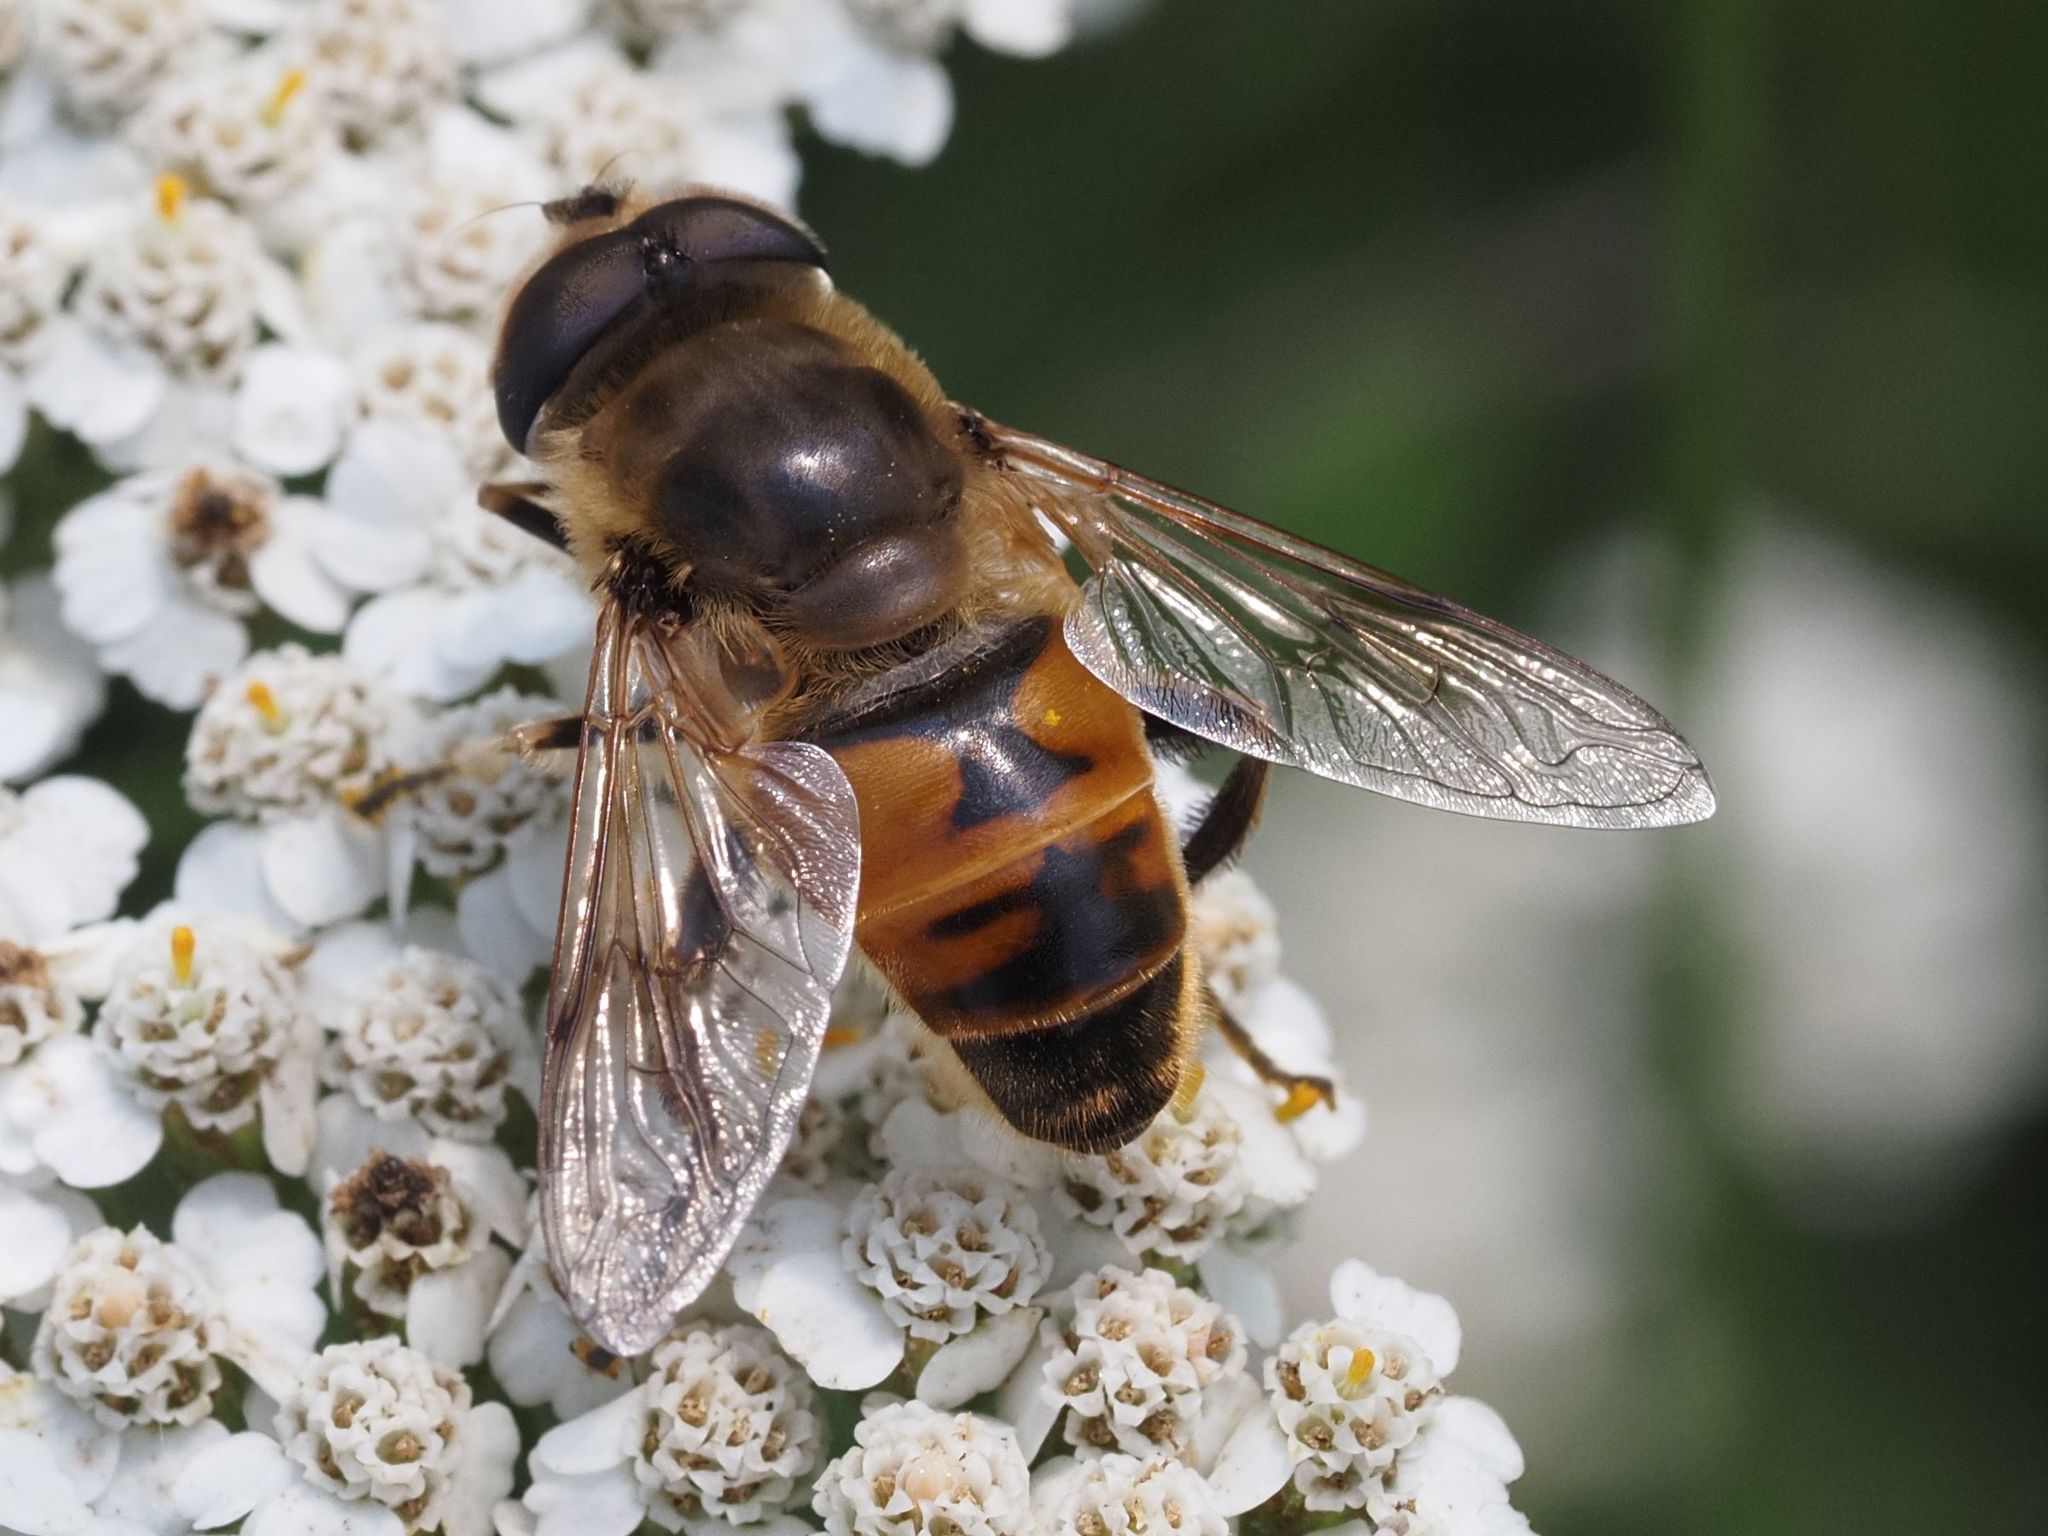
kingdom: Animalia
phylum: Arthropoda
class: Insecta
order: Diptera
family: Syrphidae
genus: Eristalis
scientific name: Eristalis tenax
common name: Drone fly
